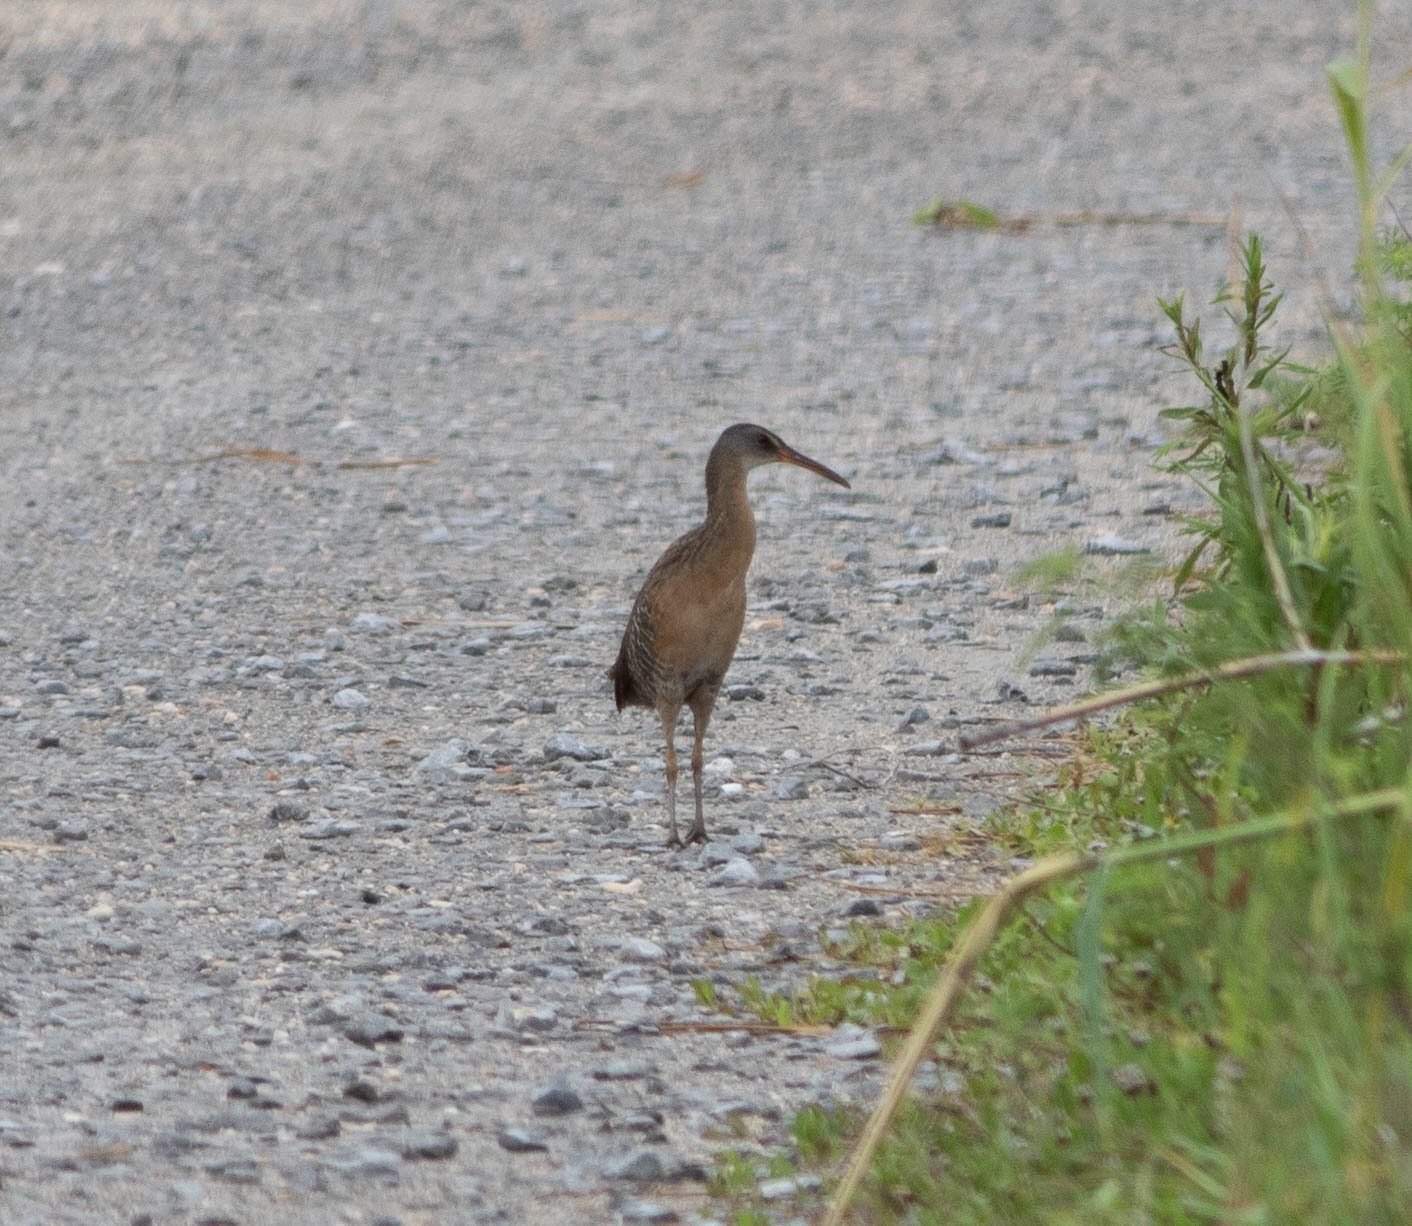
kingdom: Animalia
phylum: Chordata
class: Aves
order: Gruiformes
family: Rallidae
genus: Rallus
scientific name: Rallus crepitans
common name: Clapper rail
